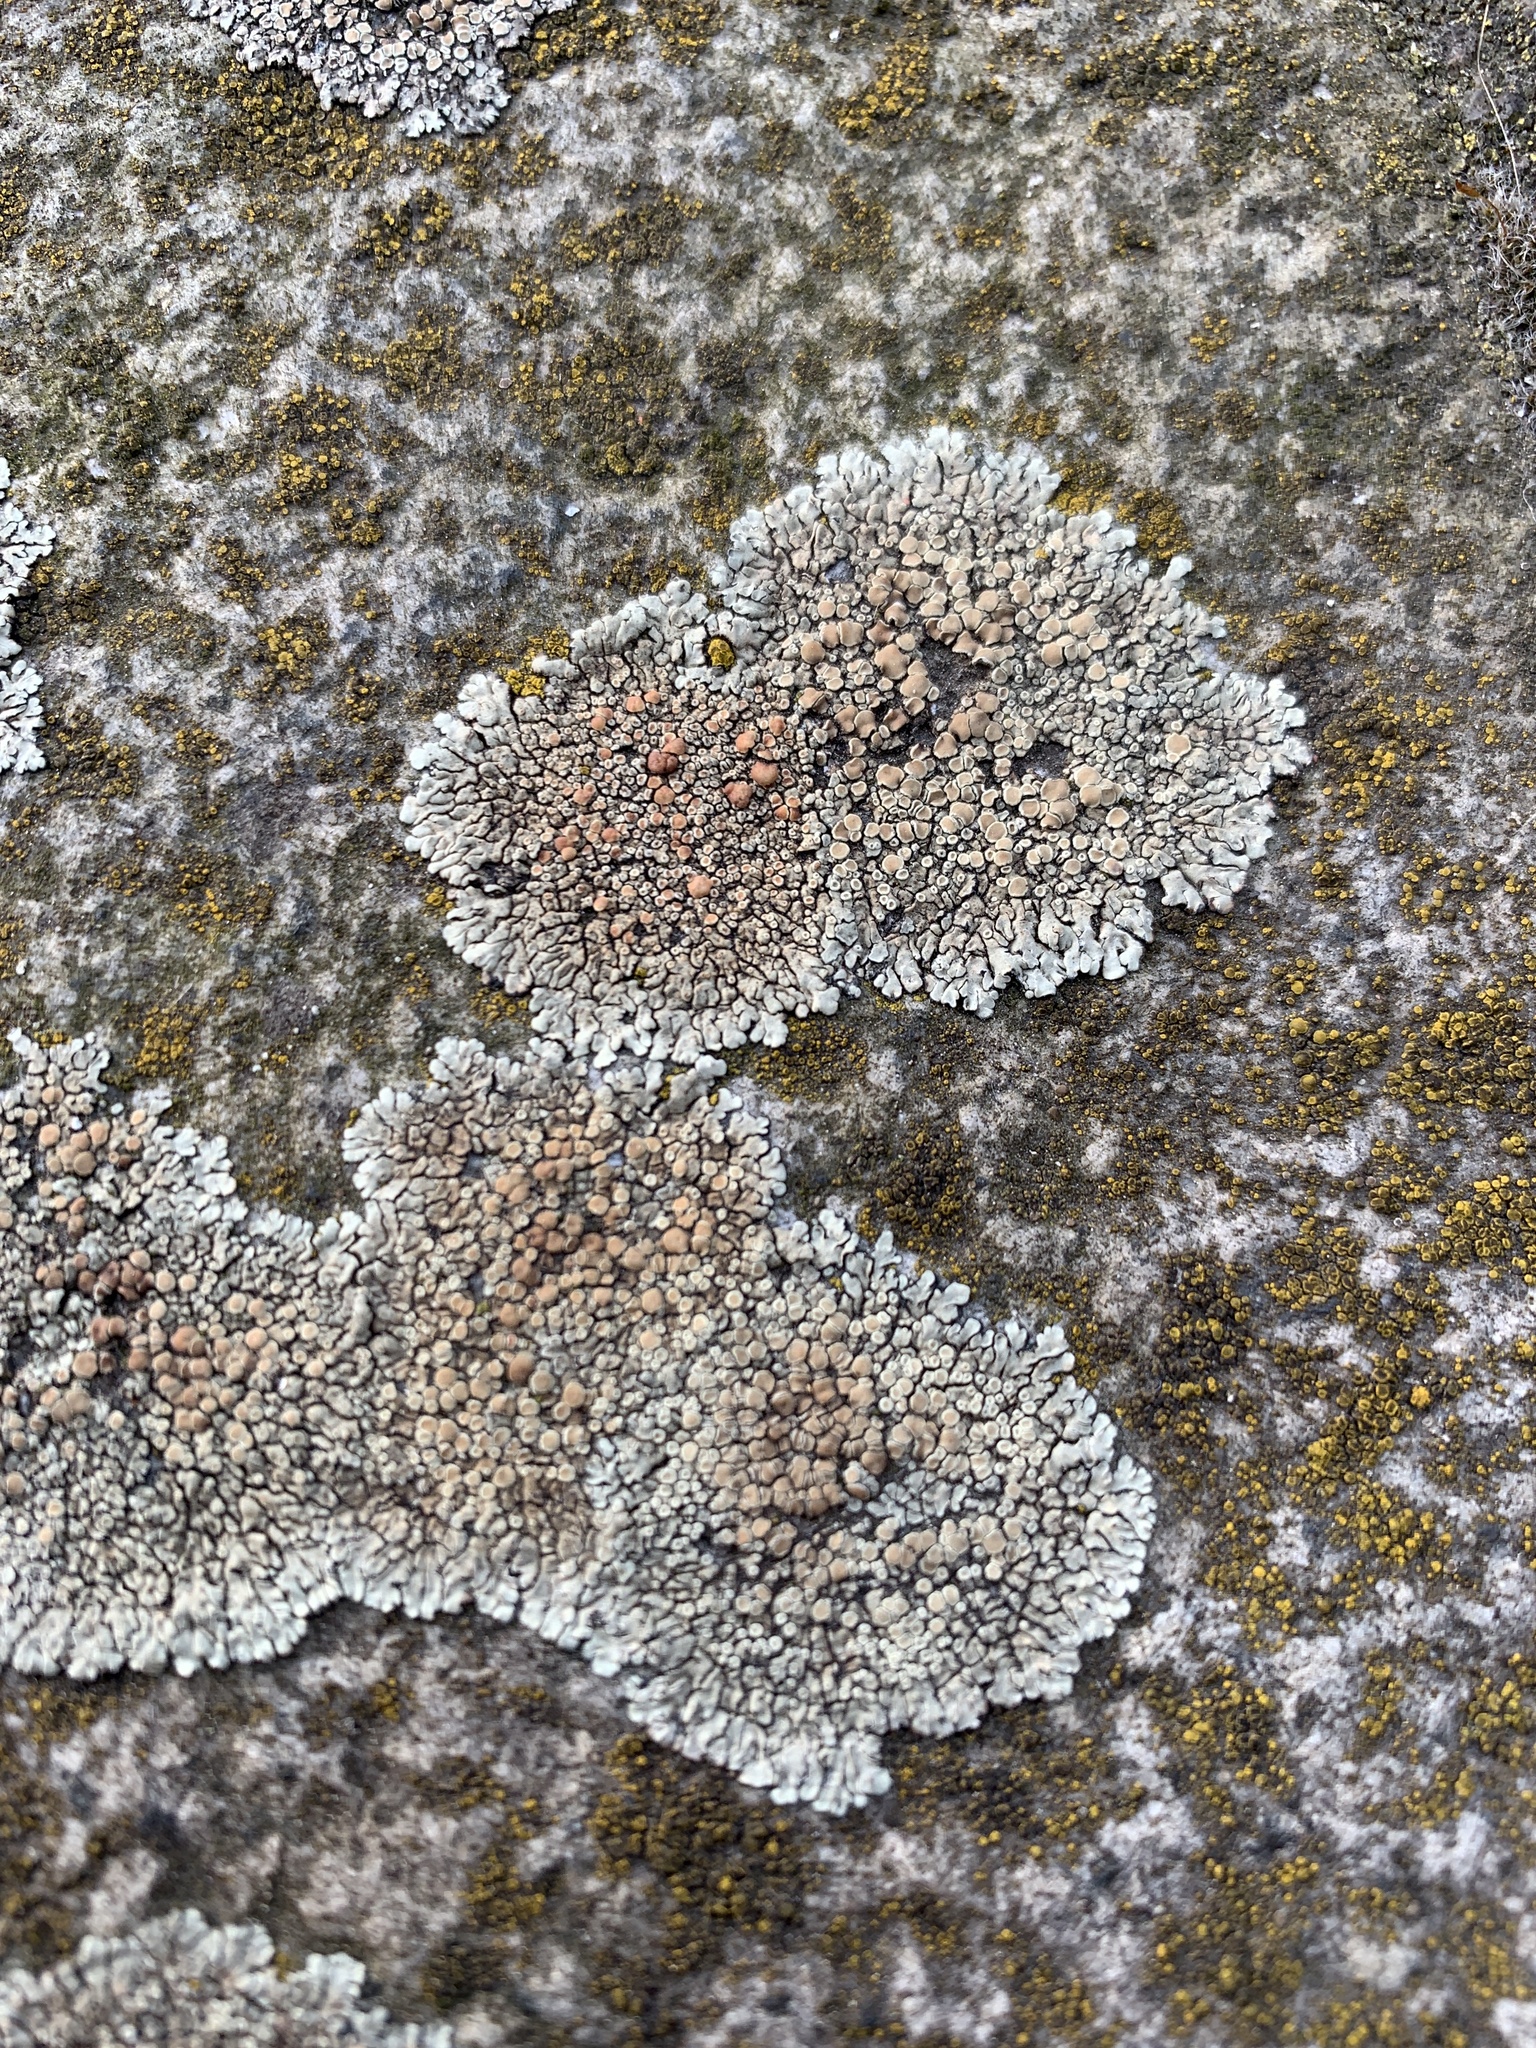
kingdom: Fungi
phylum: Ascomycota
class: Lecanoromycetes
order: Lecanorales
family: Lecanoraceae
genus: Protoparmeliopsis
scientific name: Protoparmeliopsis muralis
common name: Stonewall rim lichen
